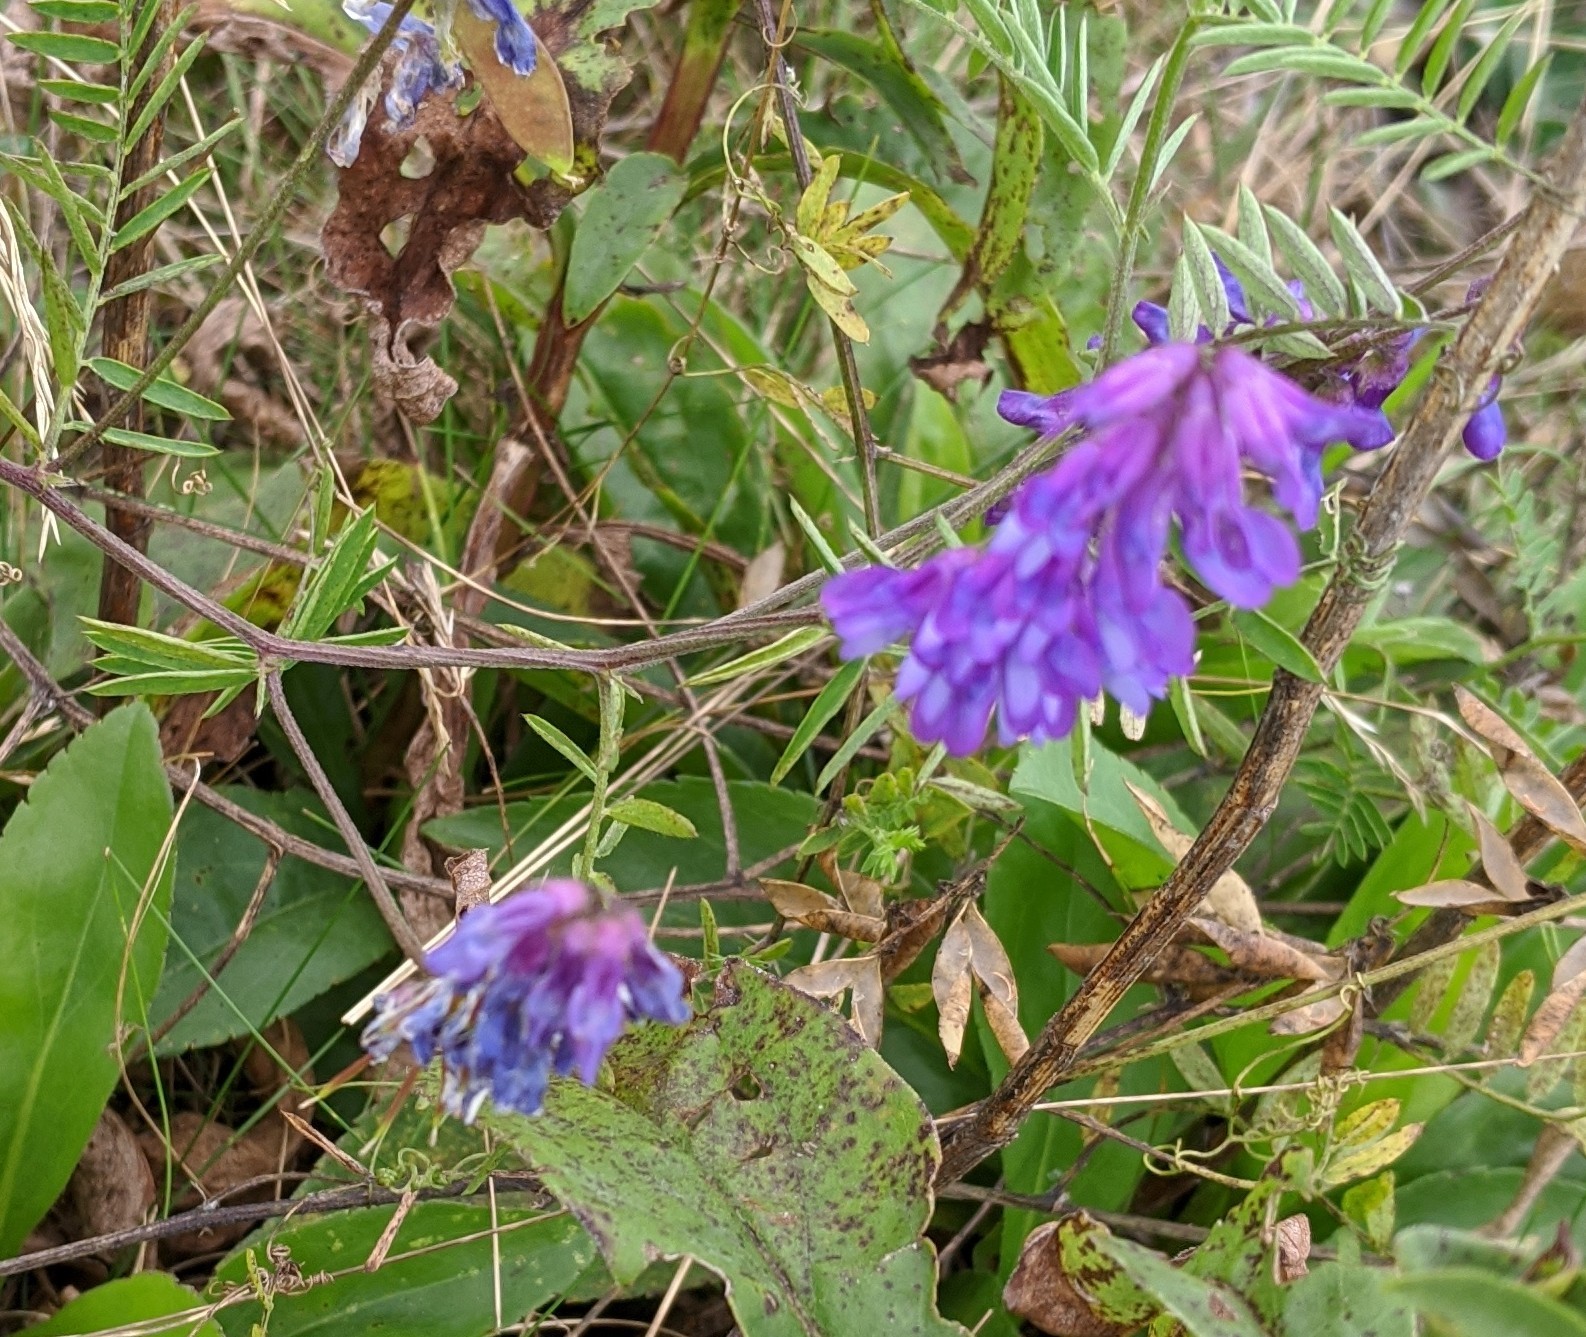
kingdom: Plantae
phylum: Tracheophyta
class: Magnoliopsida
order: Fabales
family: Fabaceae
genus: Vicia
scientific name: Vicia cracca
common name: Bird vetch
